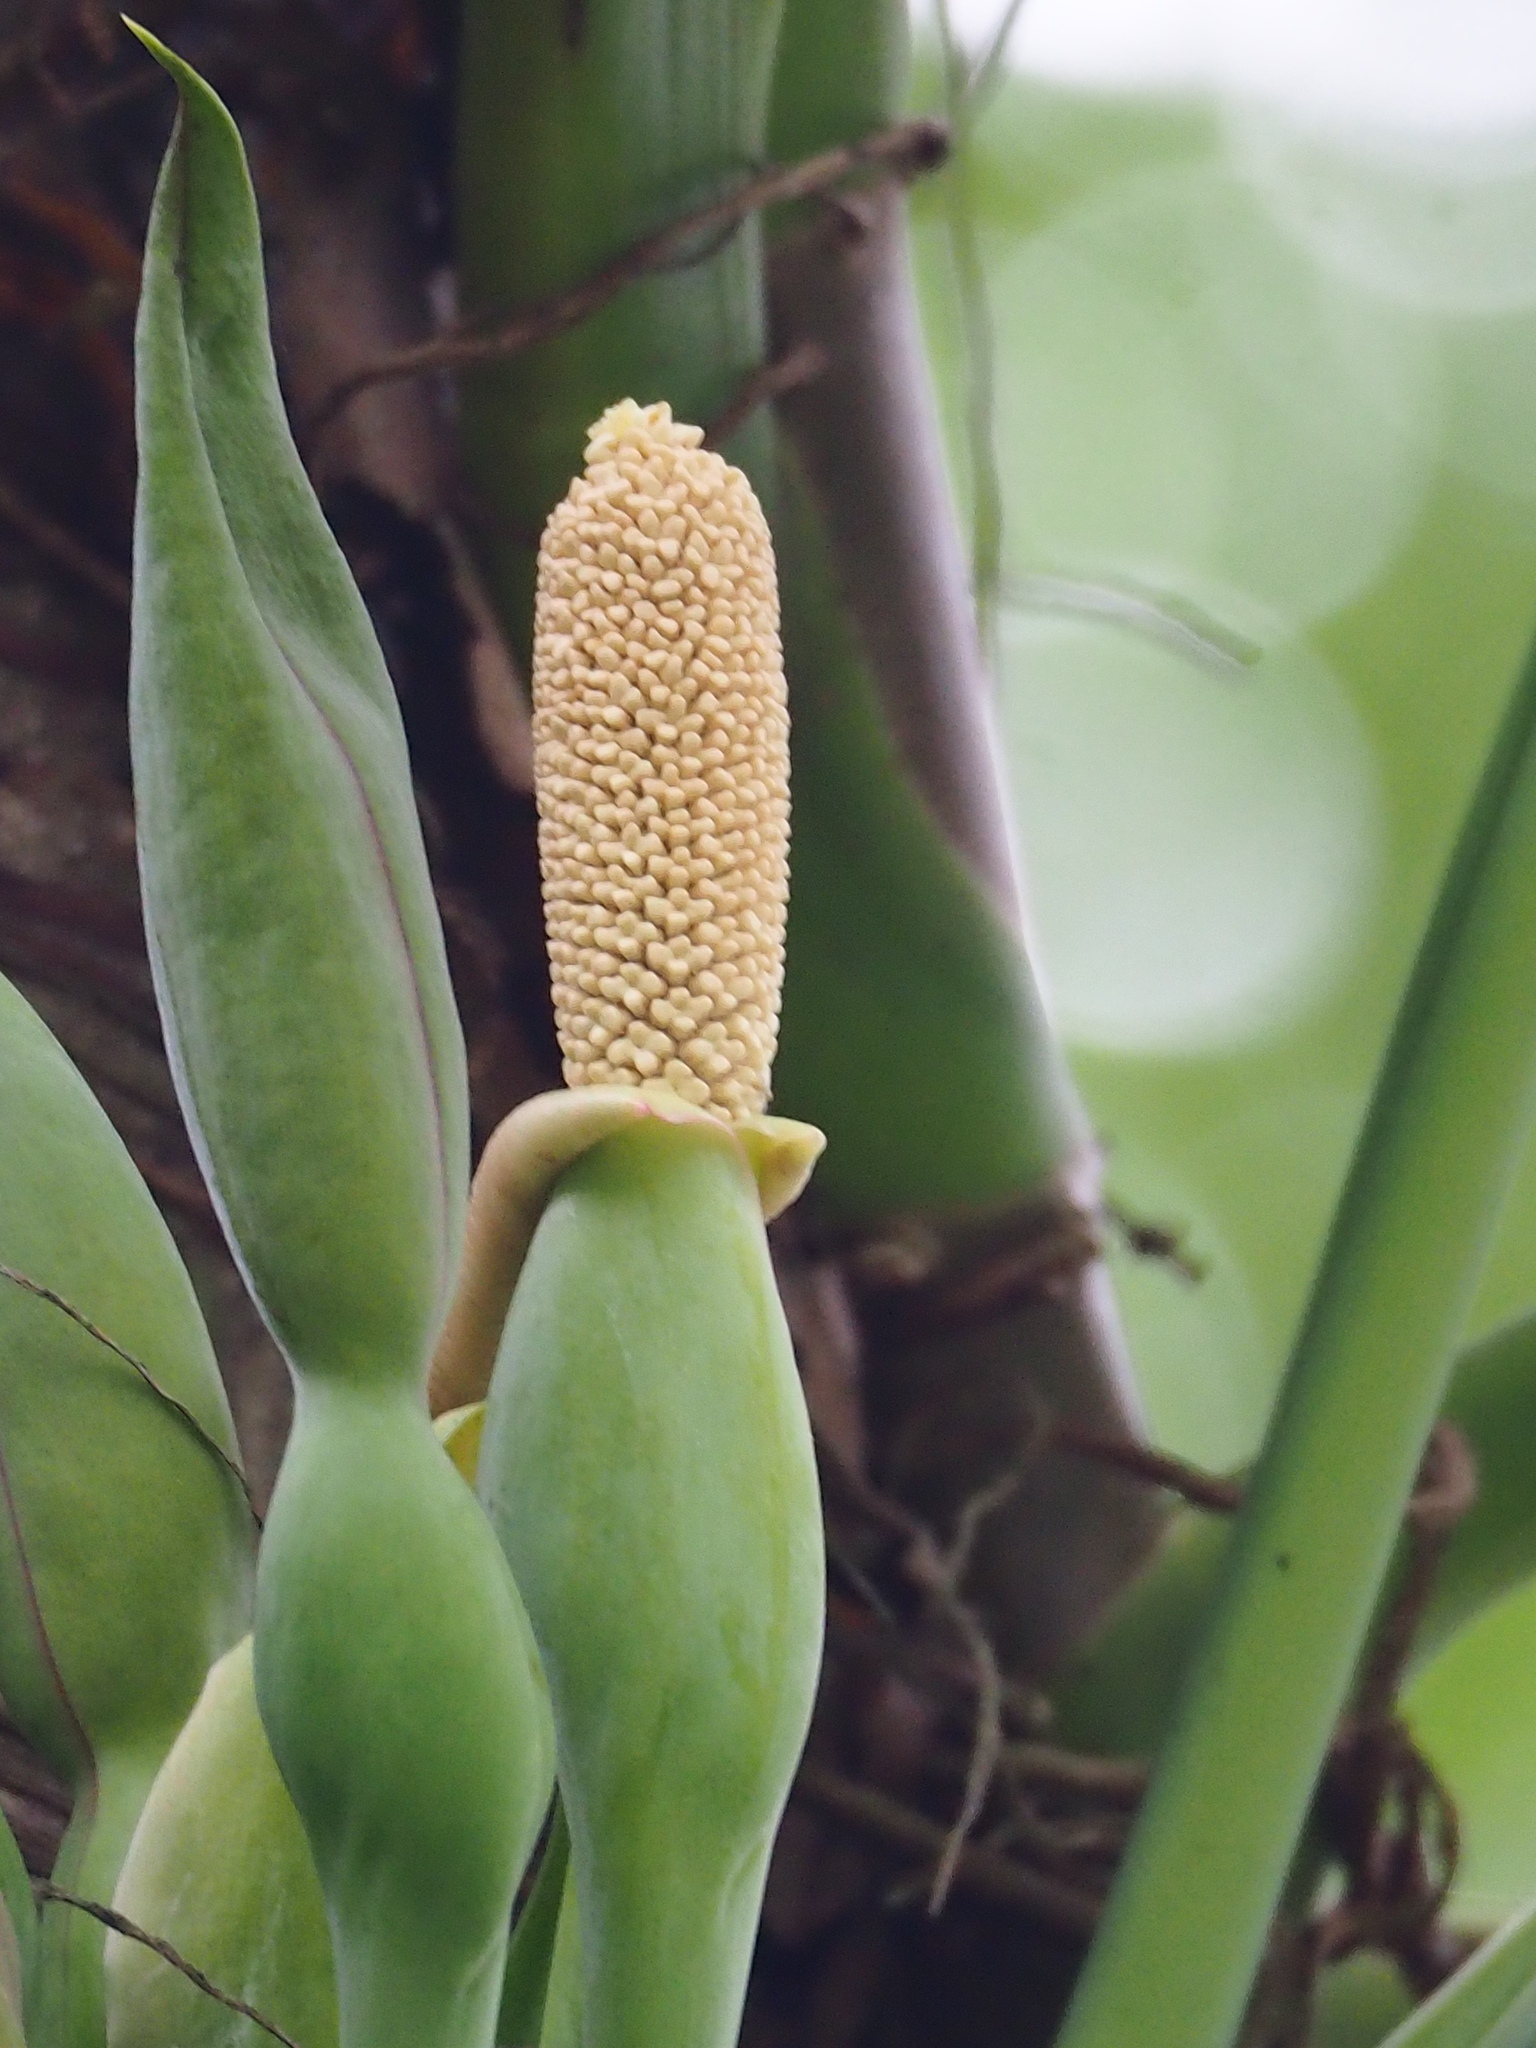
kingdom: Plantae
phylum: Tracheophyta
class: Liliopsida
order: Alismatales
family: Araceae
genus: Syngonium
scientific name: Syngonium angustatum
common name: Fivefingers
